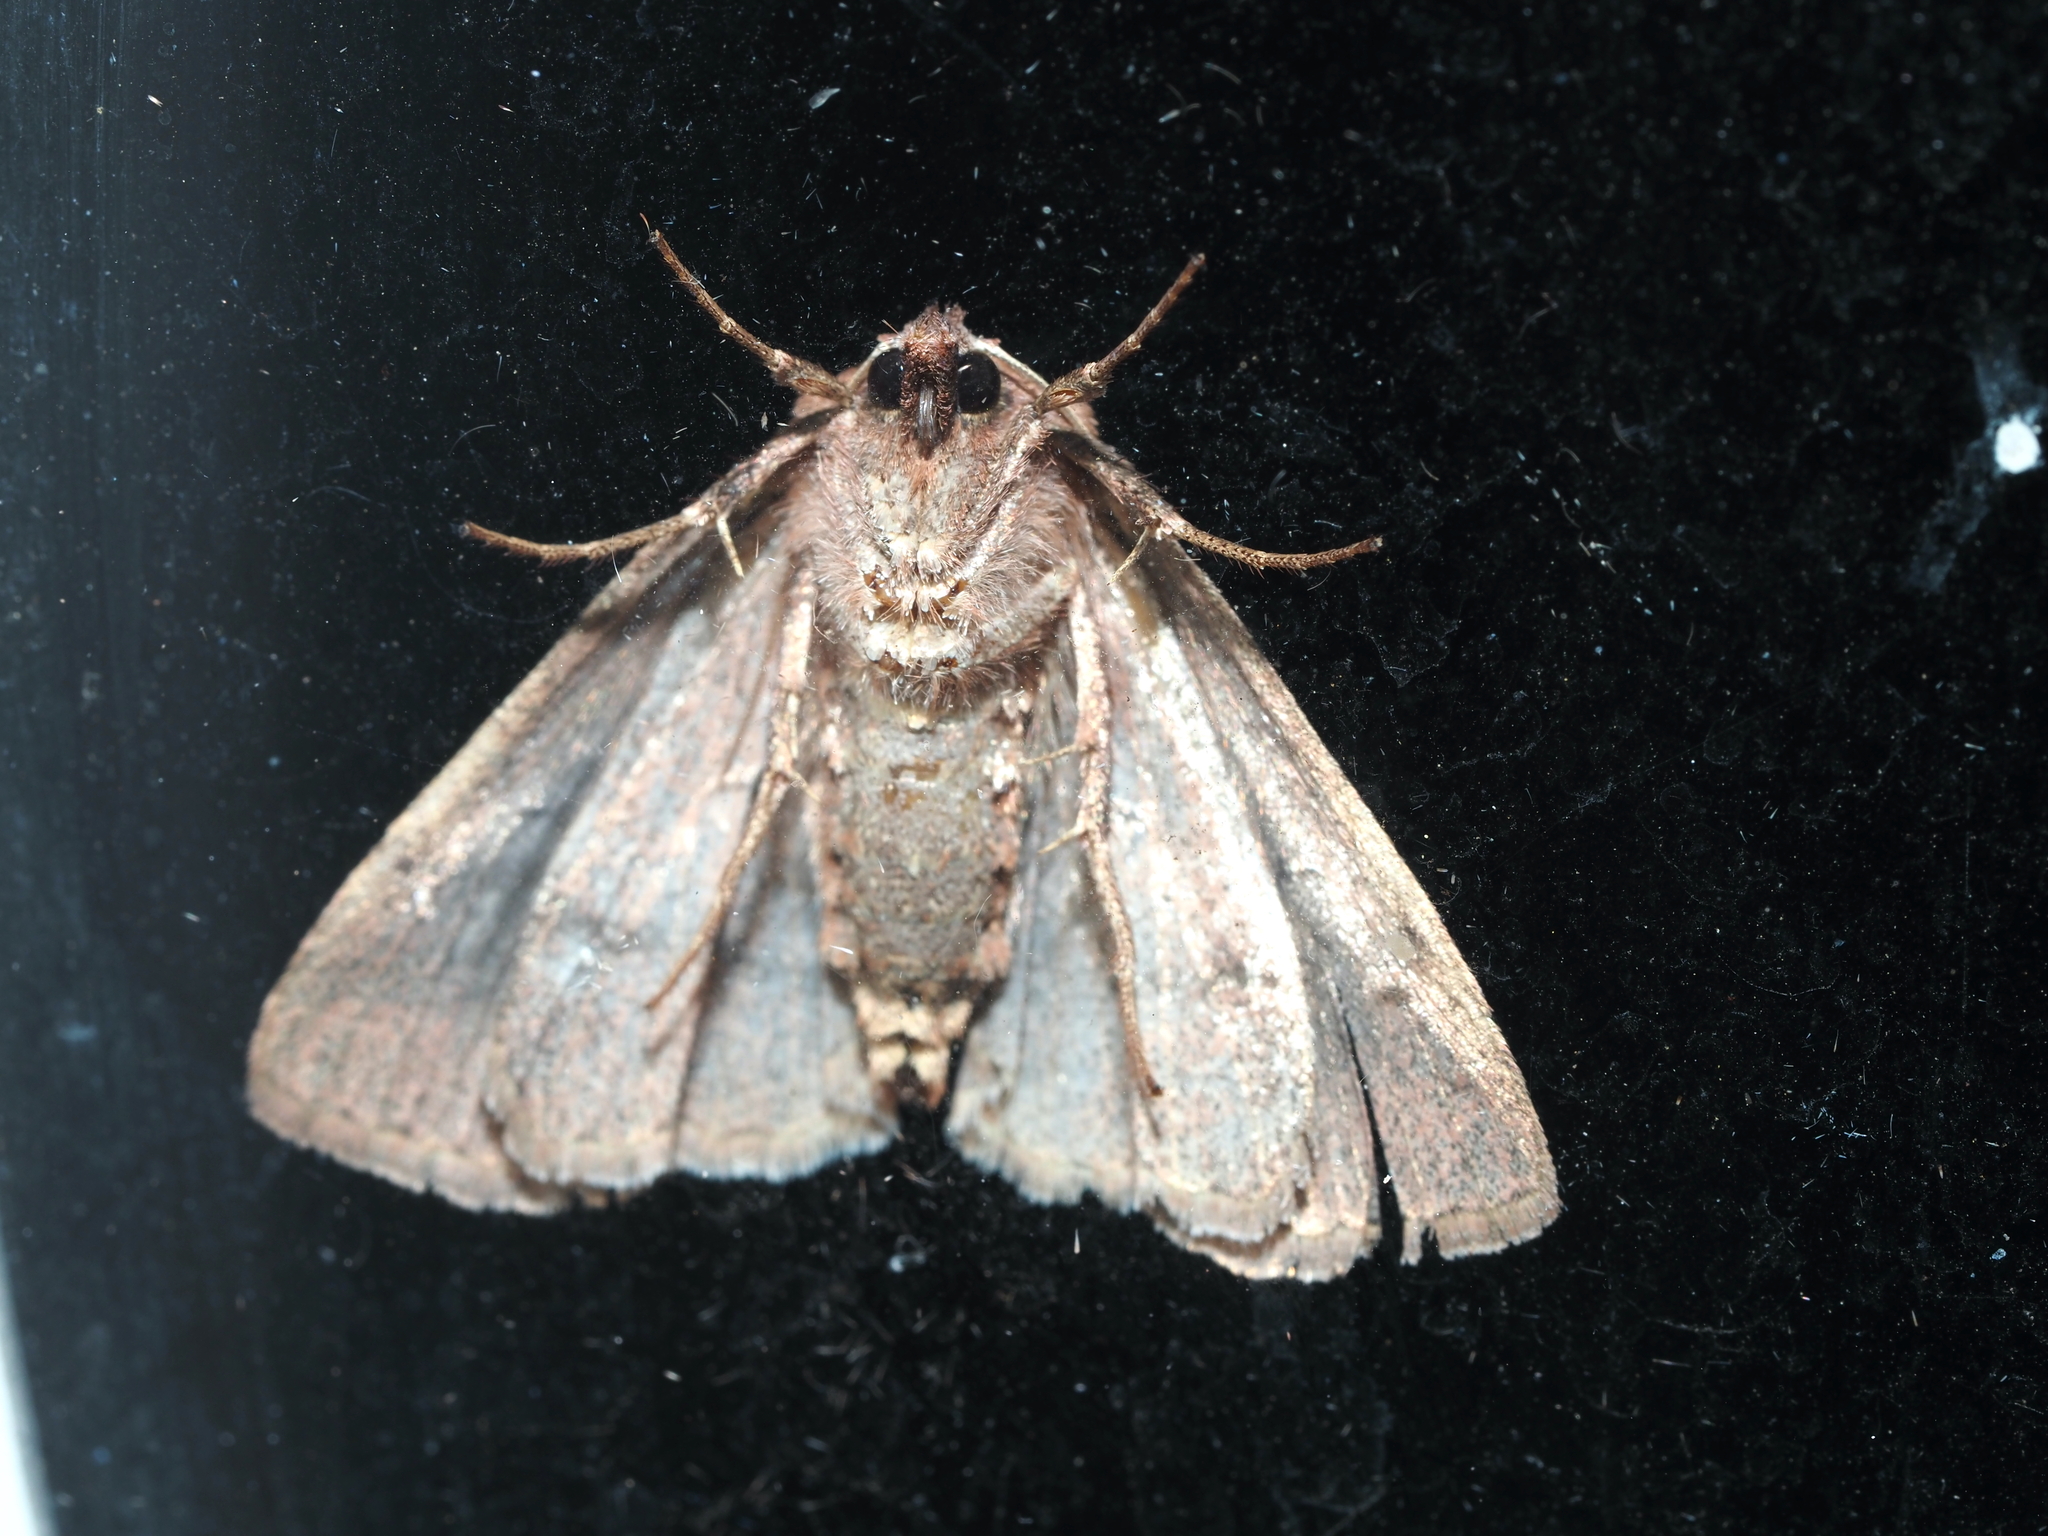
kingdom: Animalia
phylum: Arthropoda
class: Insecta
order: Lepidoptera
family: Noctuidae
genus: Agnorisma
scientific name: Agnorisma badinodis
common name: Pale-banded dart
